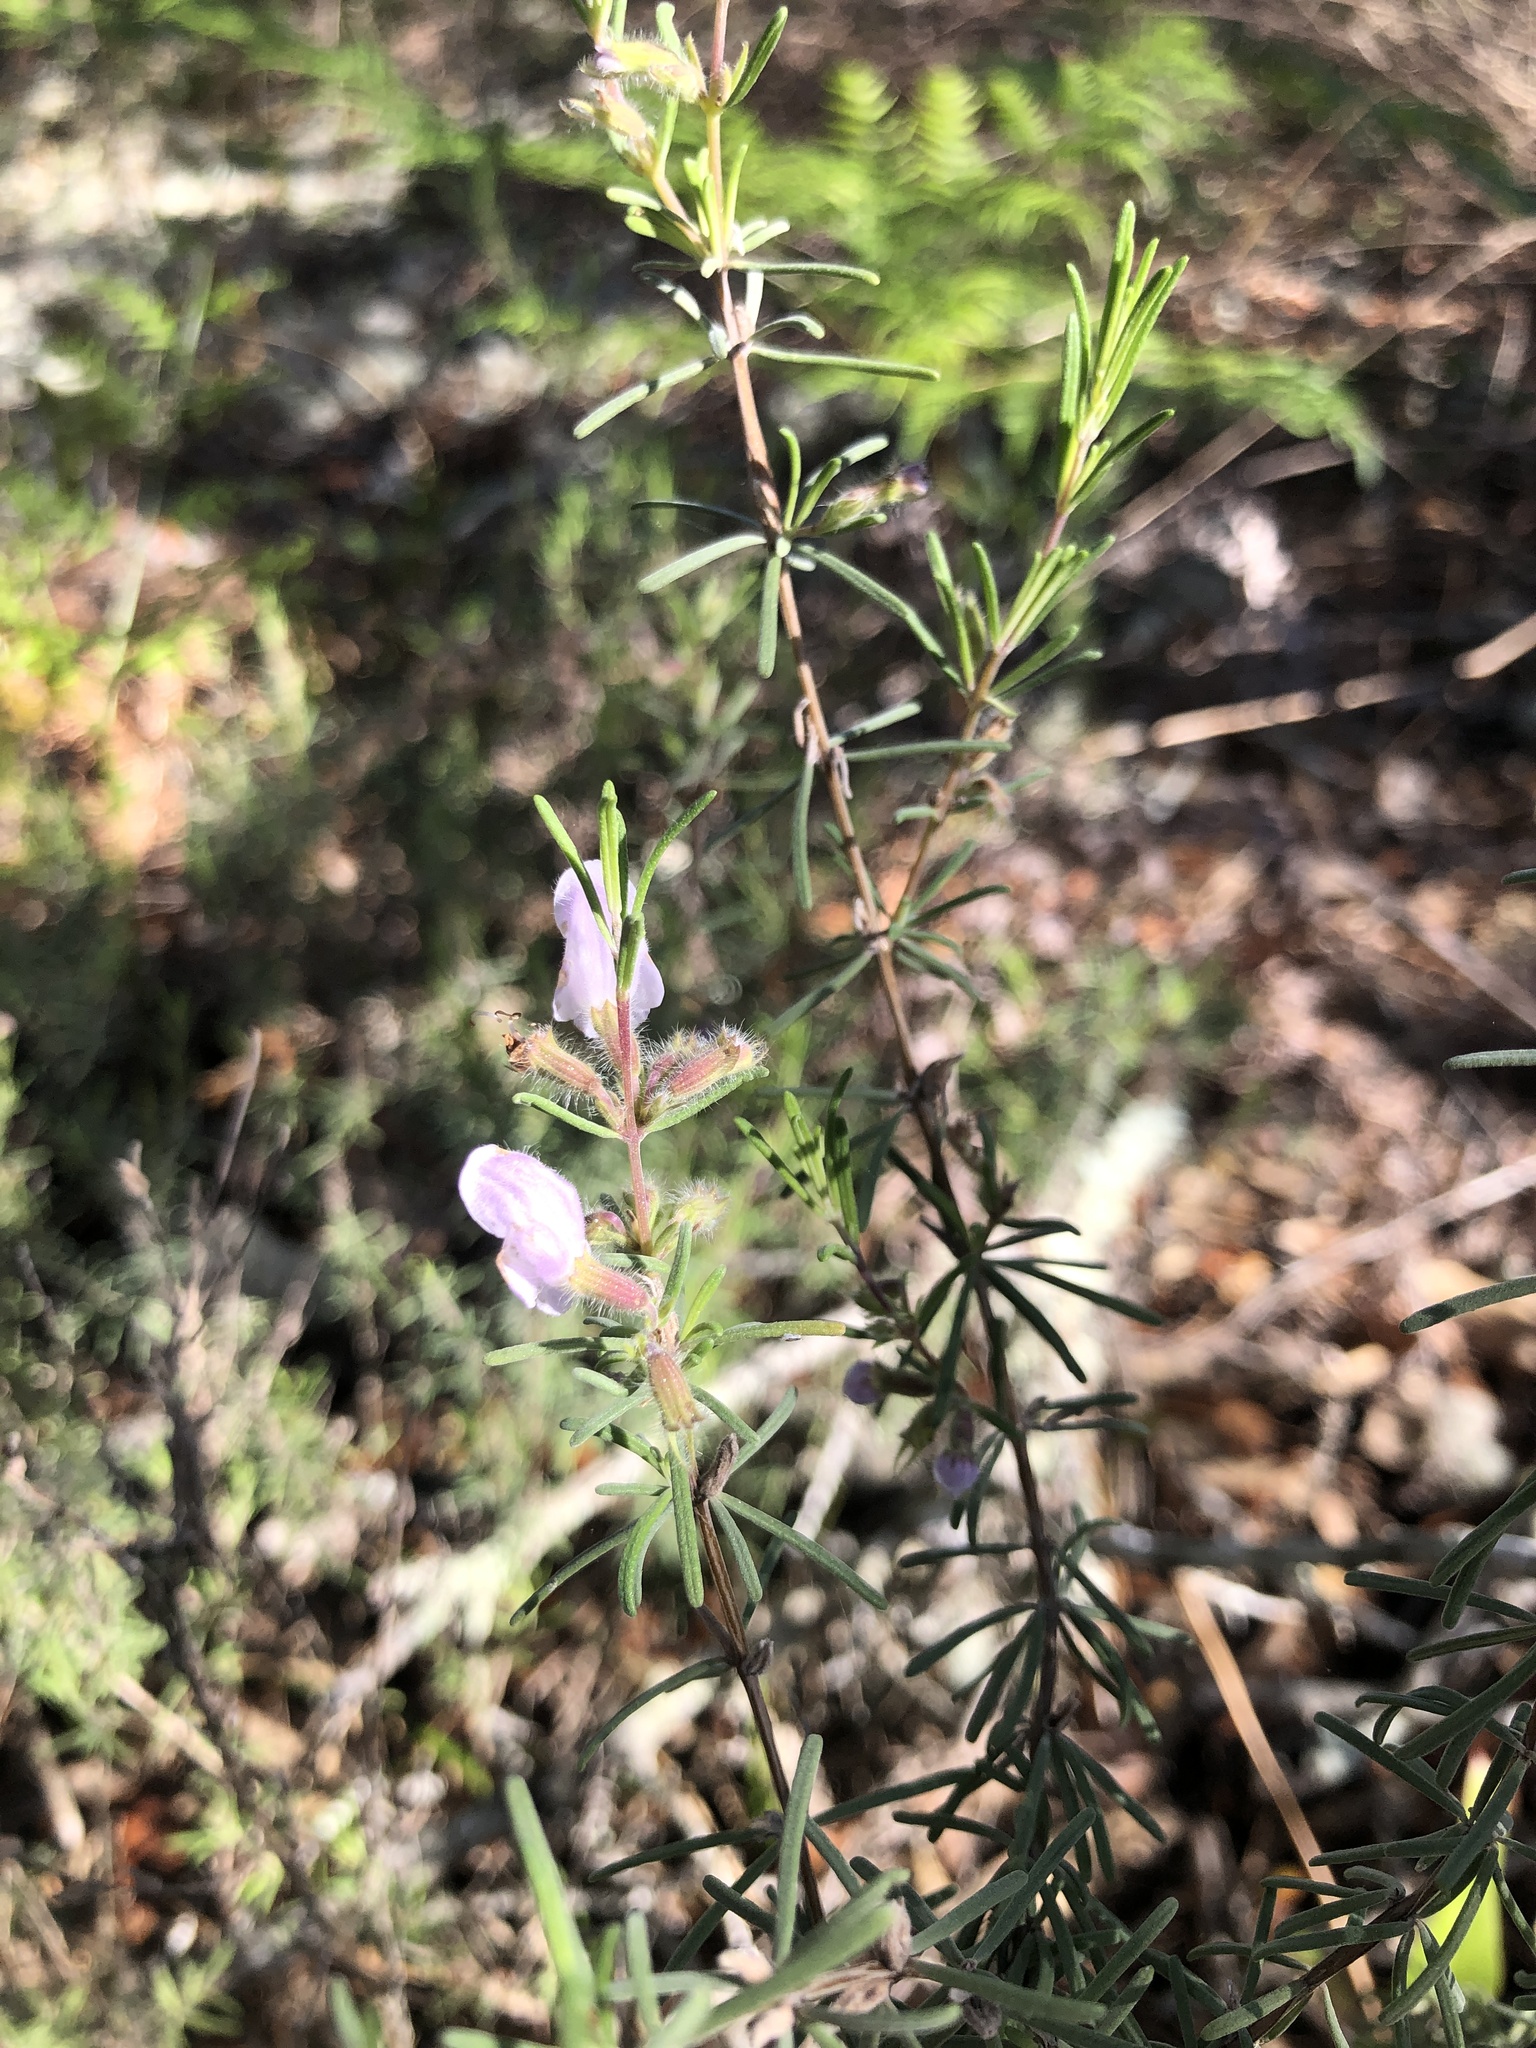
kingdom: Plantae
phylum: Tracheophyta
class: Magnoliopsida
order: Lamiales
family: Lamiaceae
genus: Conradina
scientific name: Conradina canescens
